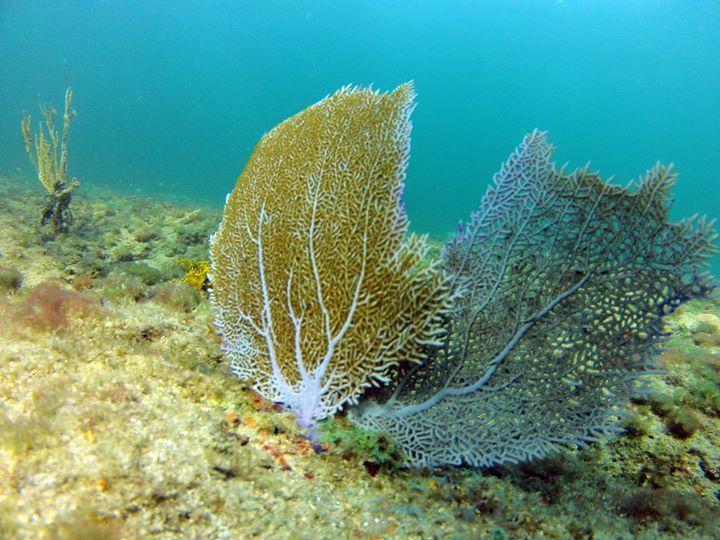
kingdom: Animalia
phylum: Cnidaria
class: Anthozoa
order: Malacalcyonacea
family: Gorgoniidae
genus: Gorgonia
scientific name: Gorgonia ventalina
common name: Common sea fan
